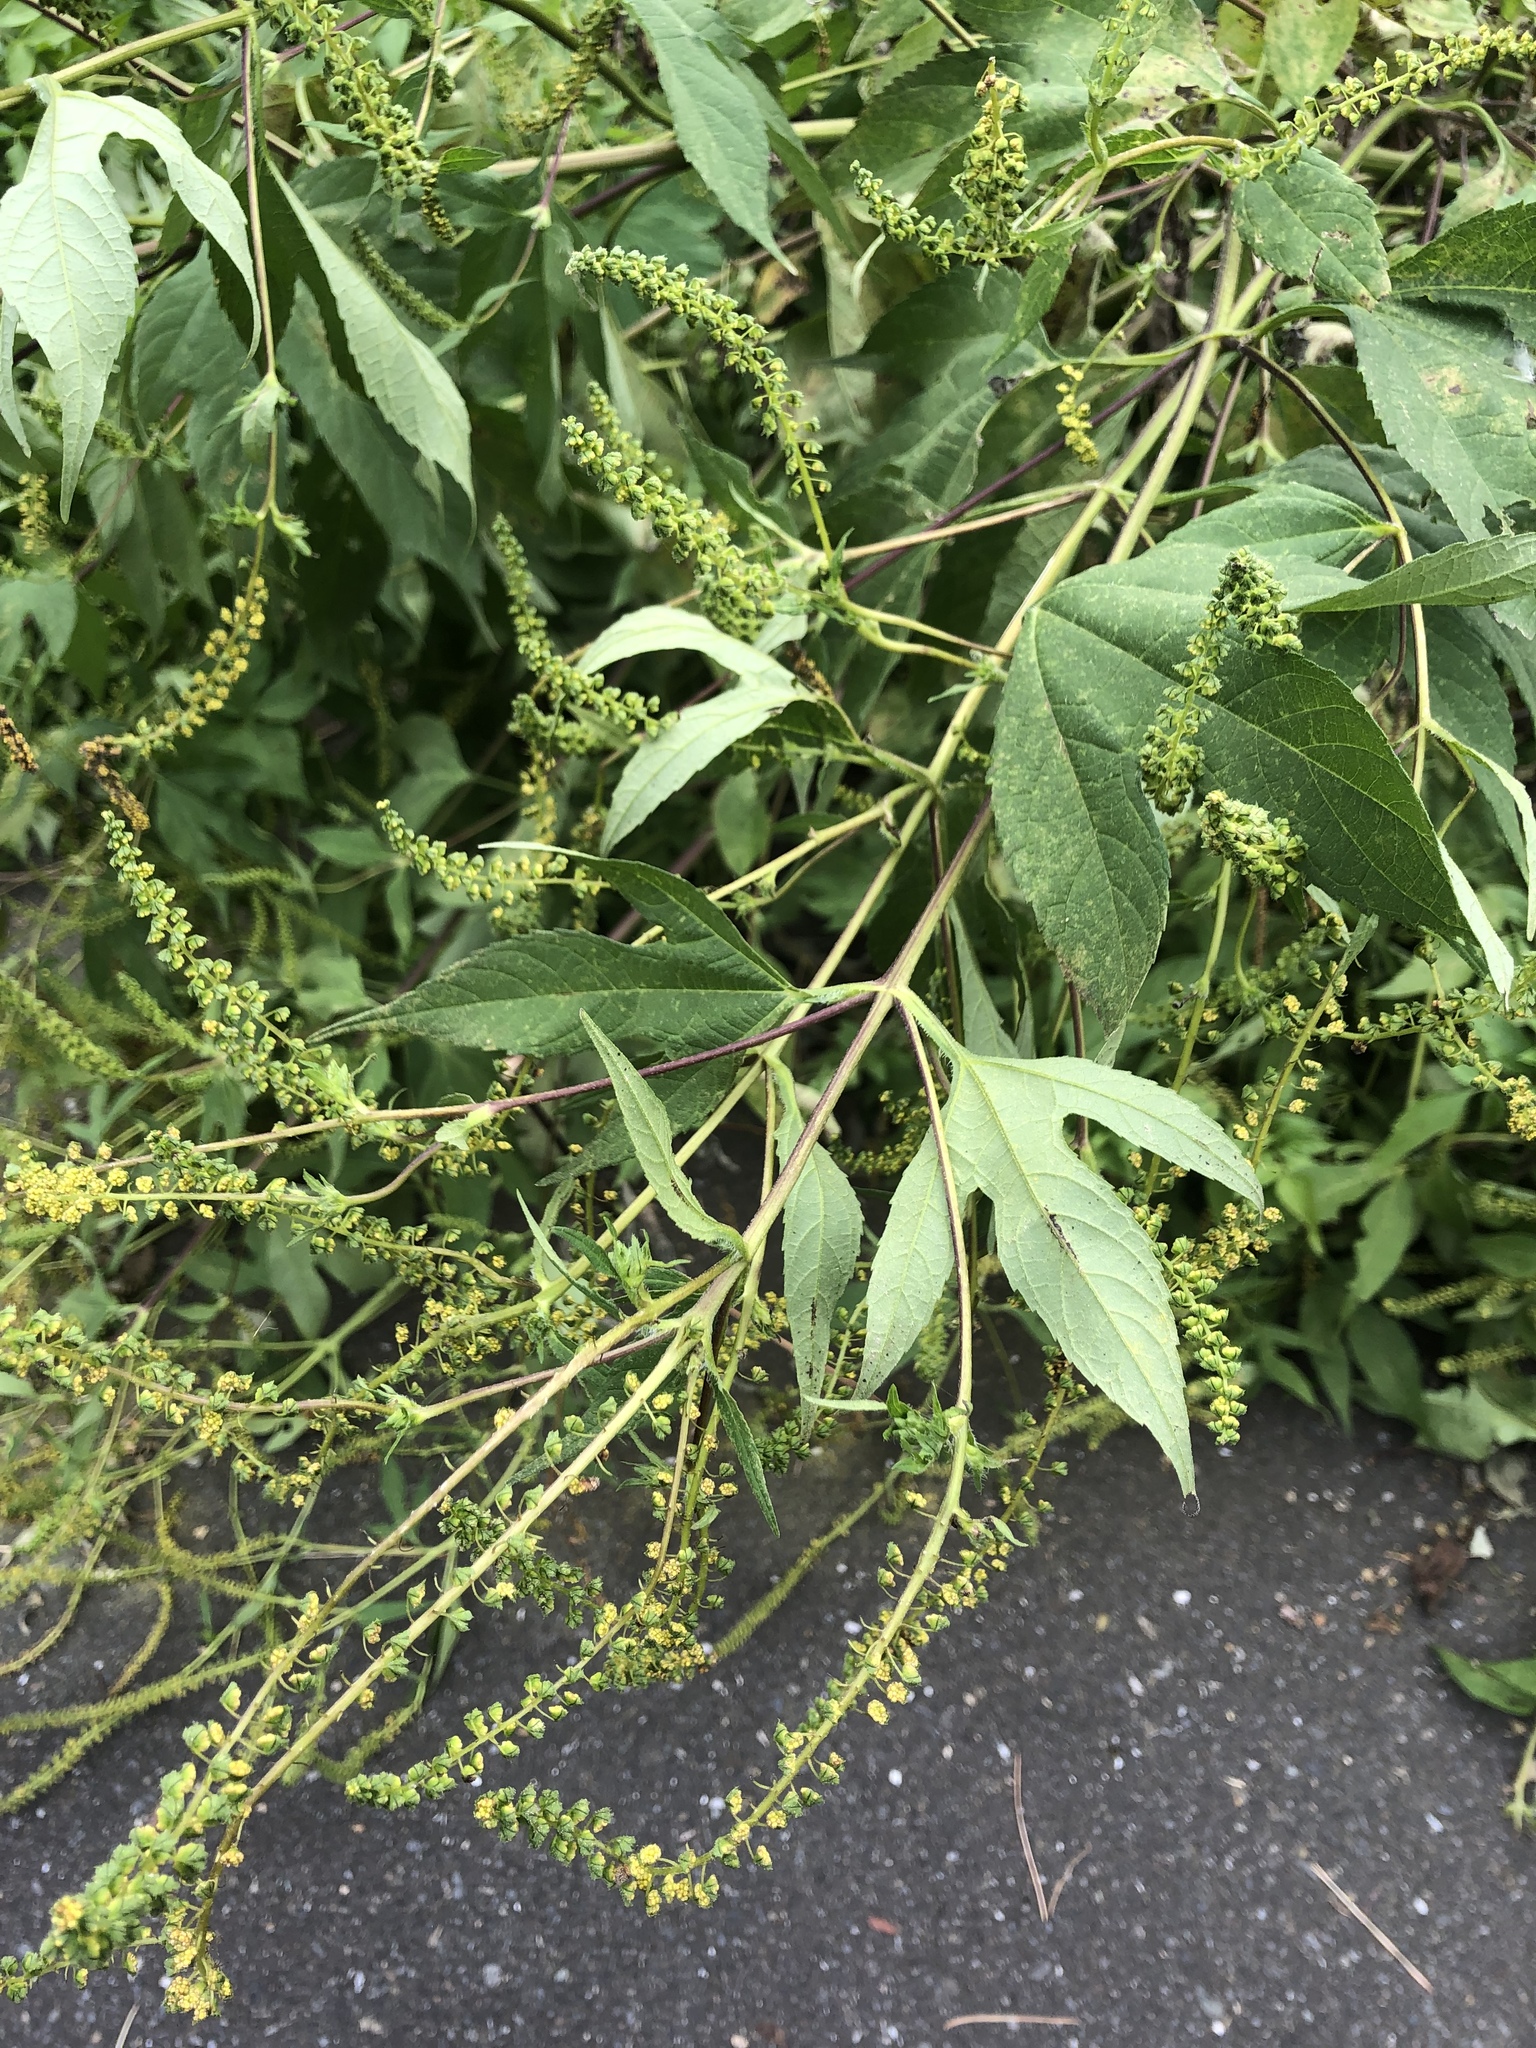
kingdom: Plantae
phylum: Tracheophyta
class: Magnoliopsida
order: Asterales
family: Asteraceae
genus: Ambrosia
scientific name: Ambrosia trifida
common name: Giant ragweed
